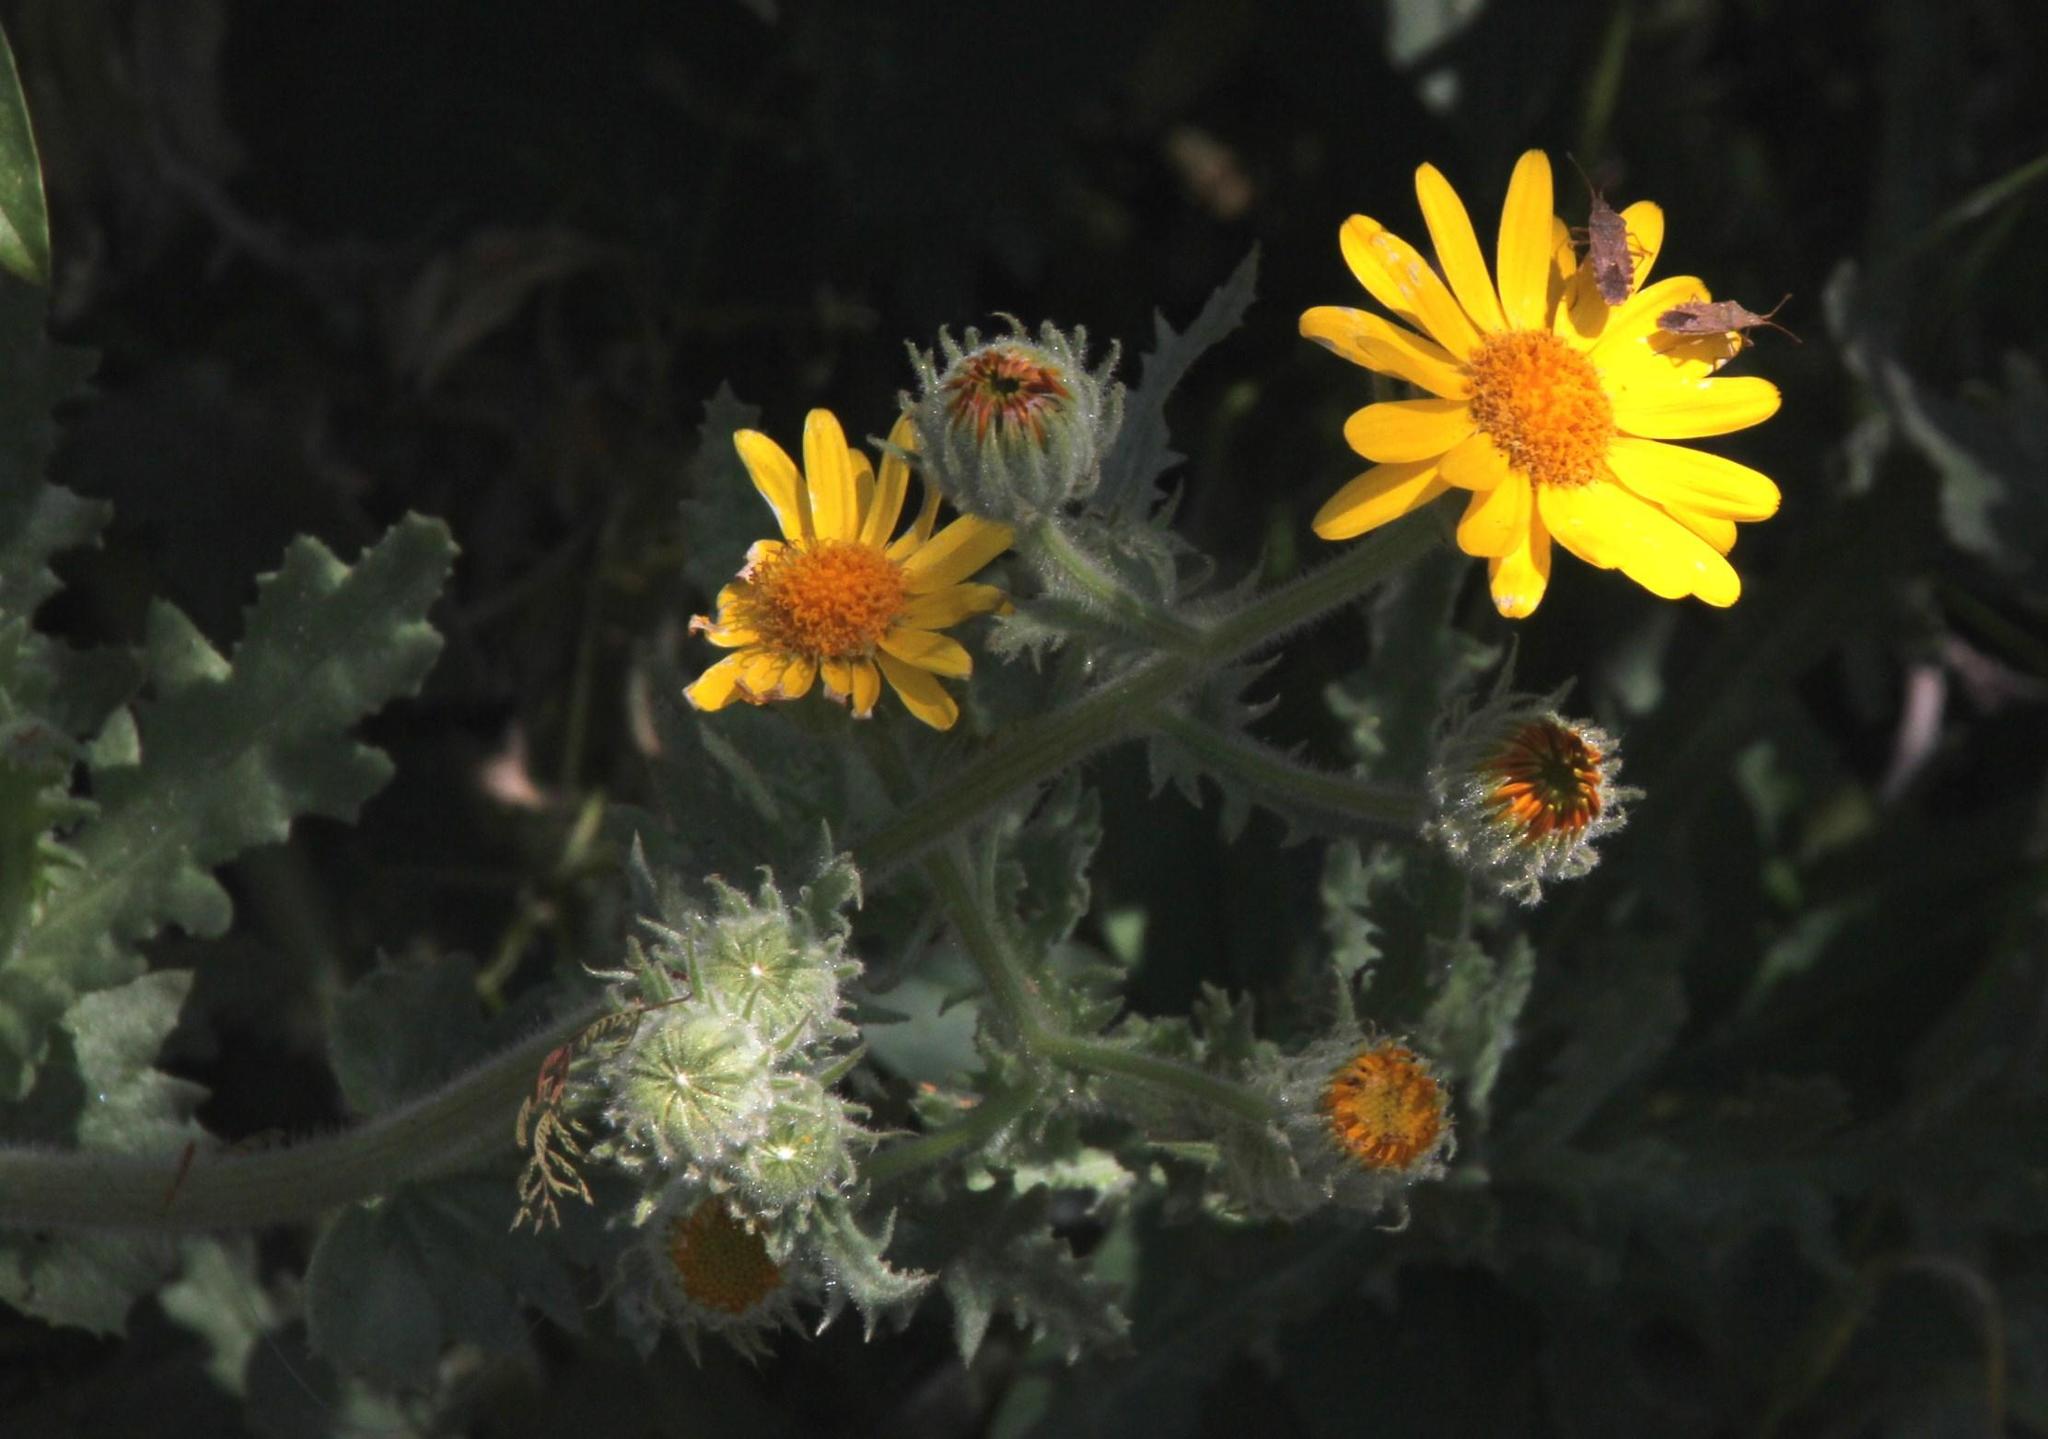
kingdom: Plantae
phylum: Tracheophyta
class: Magnoliopsida
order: Asterales
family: Asteraceae
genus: Senecio
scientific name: Senecio adenotrichius
